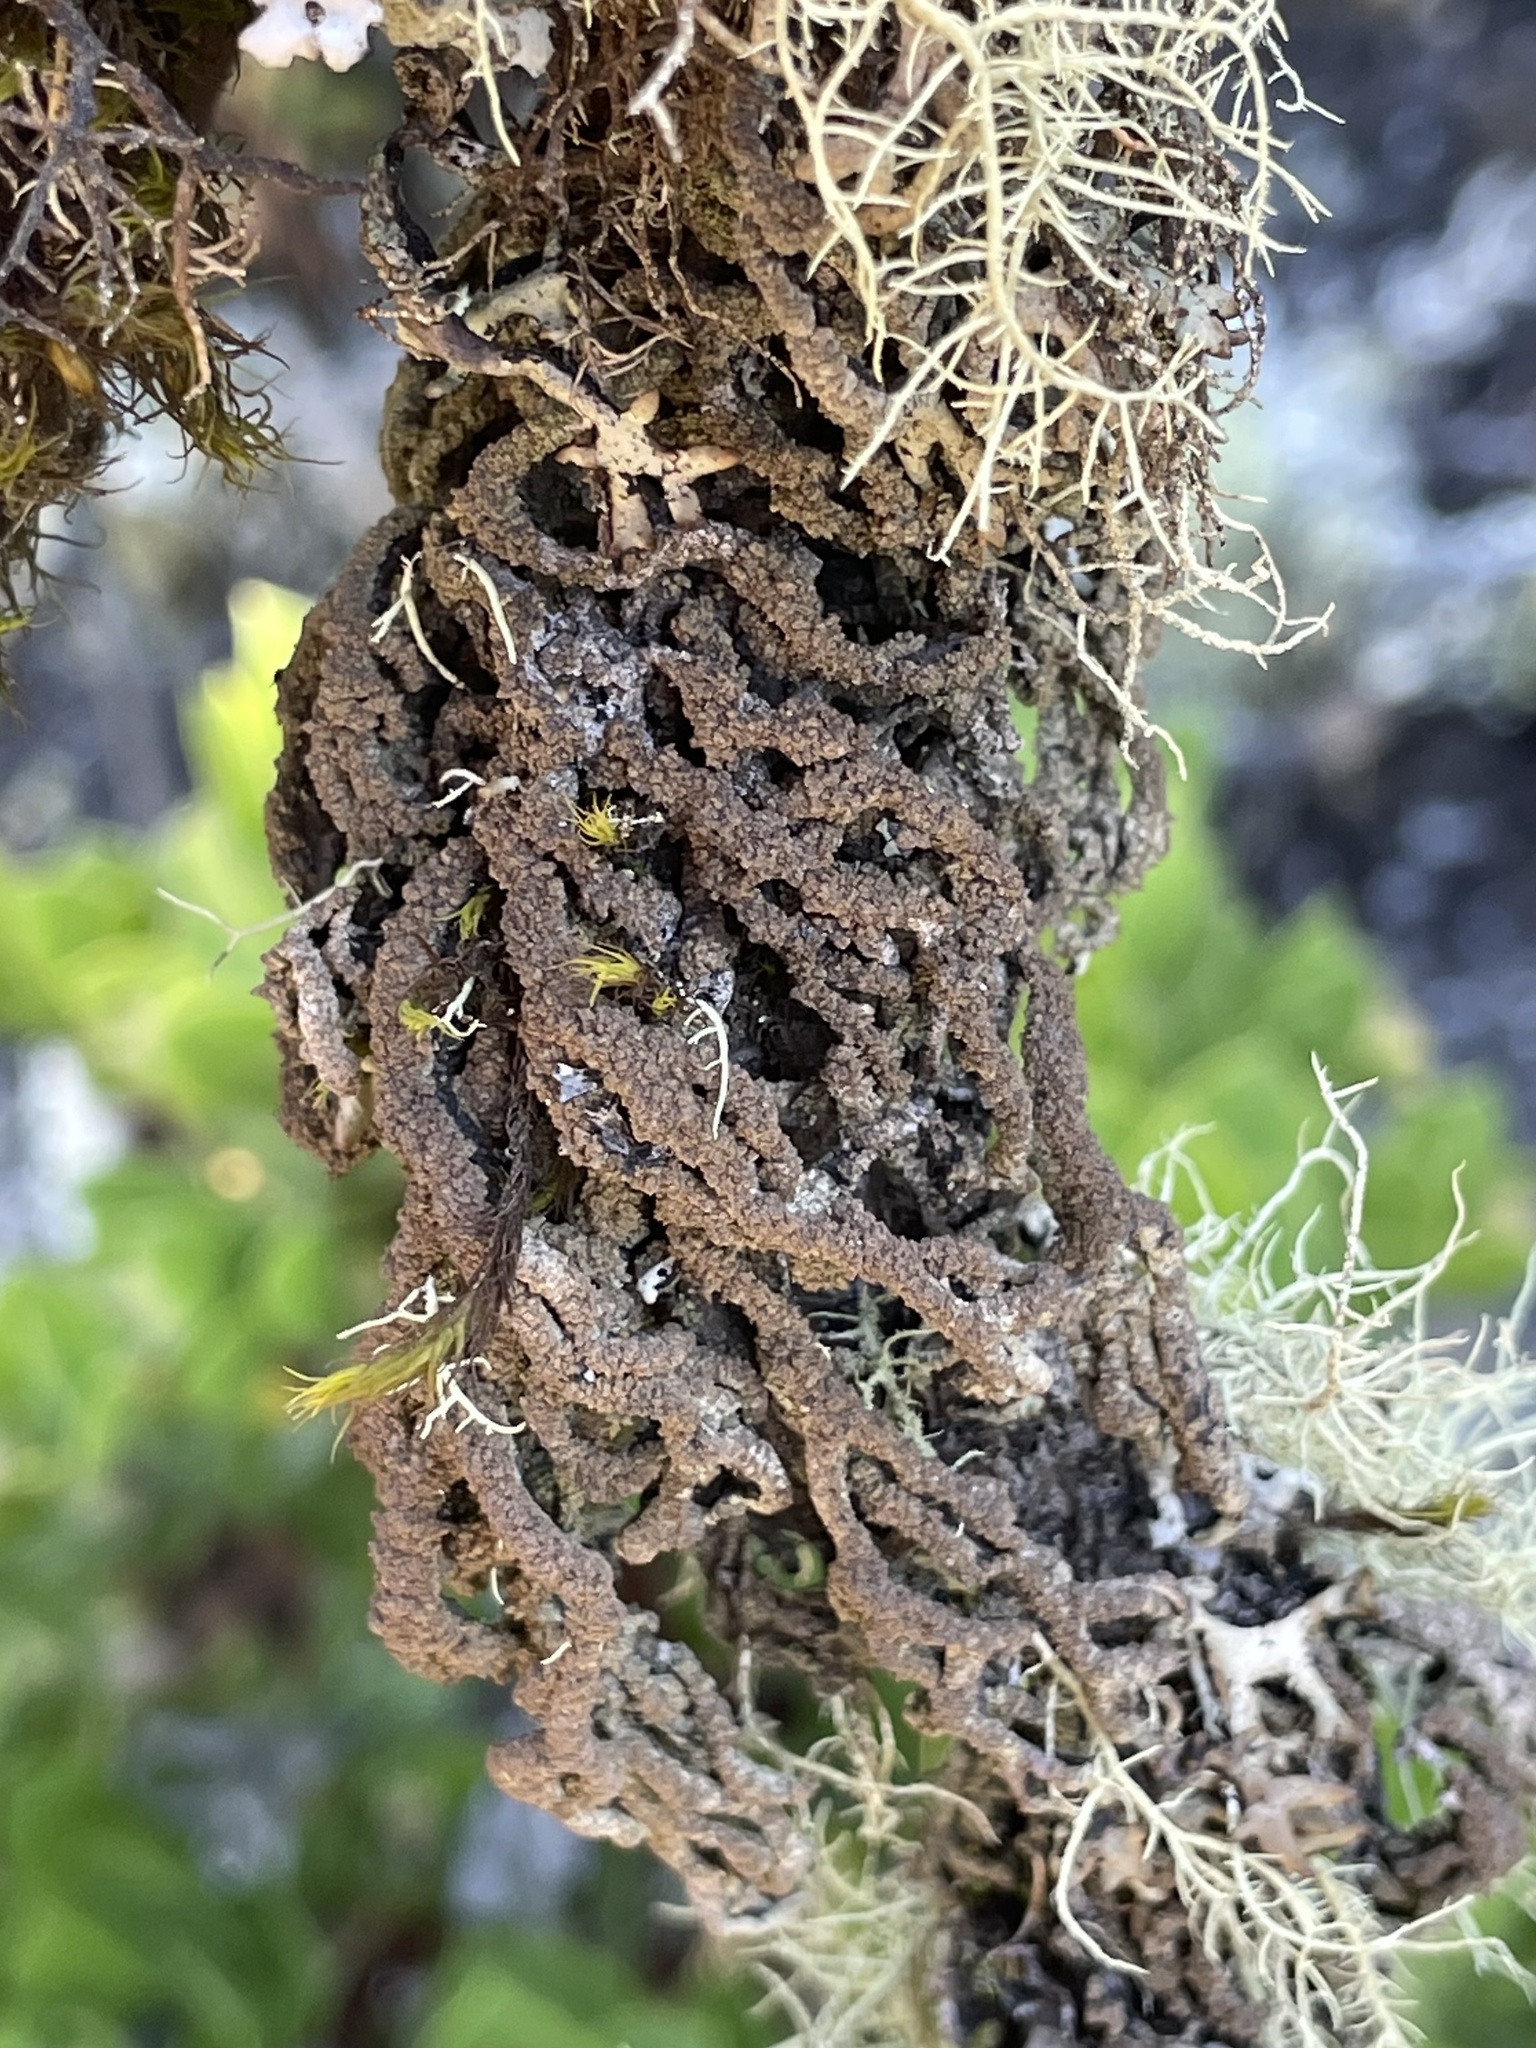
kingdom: Fungi
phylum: Ascomycota
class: Lecanoromycetes
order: Lecanorales
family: Parmeliaceae
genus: Hypogymnia
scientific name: Hypogymnia schizidiata
